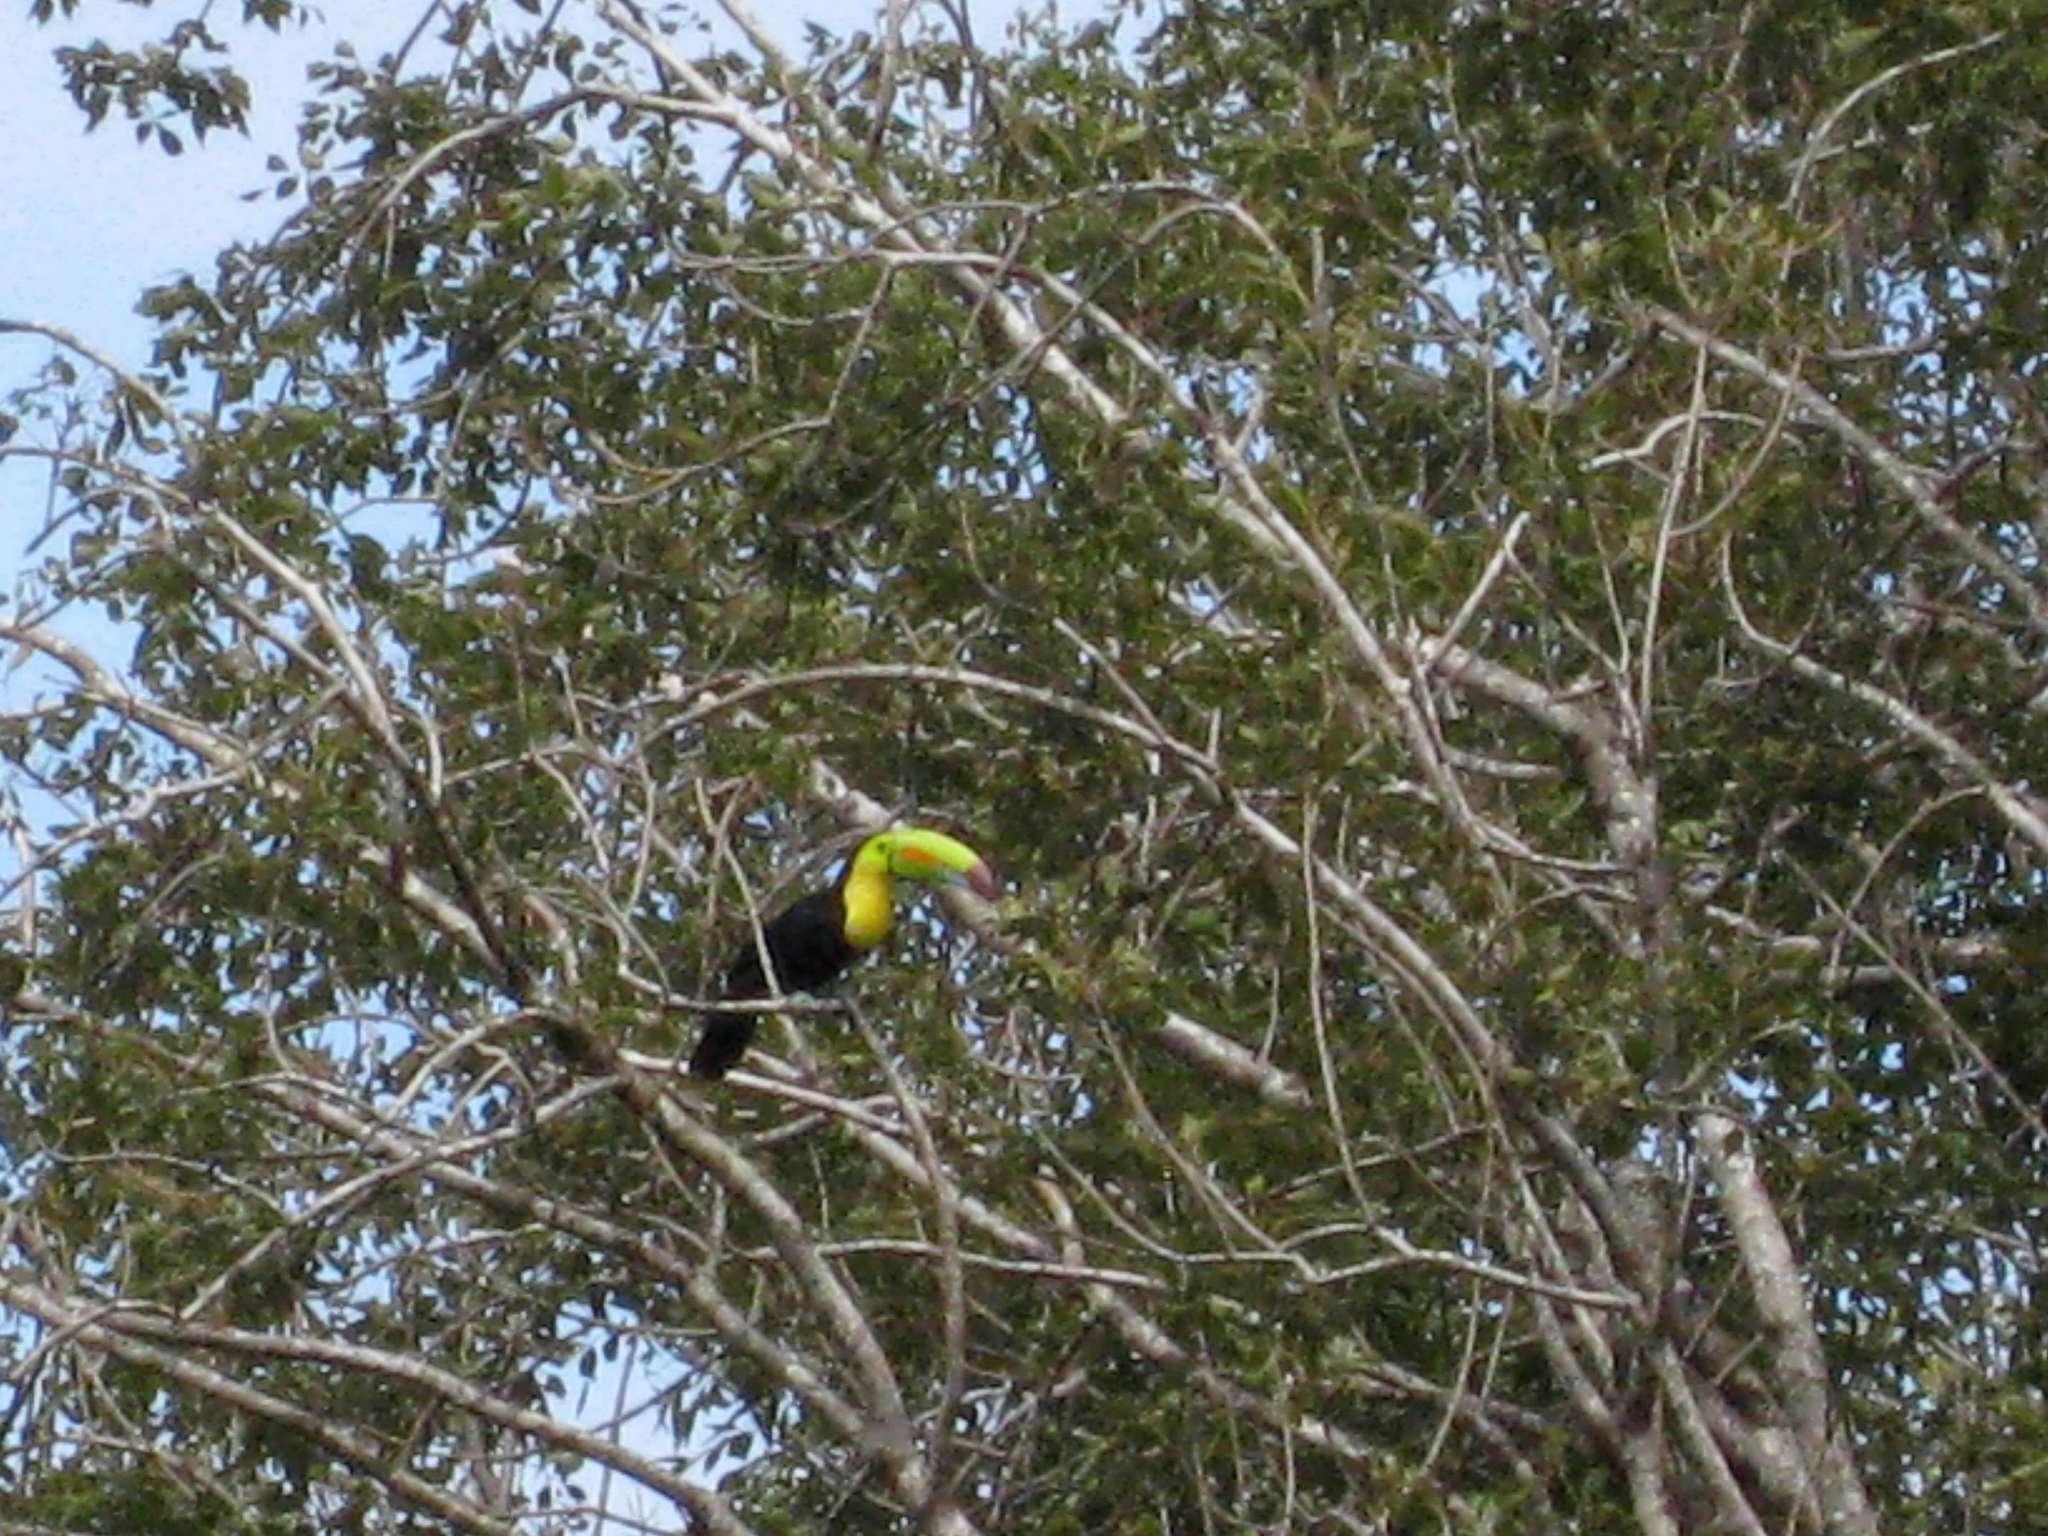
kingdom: Animalia
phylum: Chordata
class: Aves
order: Piciformes
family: Ramphastidae
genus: Ramphastos
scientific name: Ramphastos sulfuratus
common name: Keel-billed toucan
